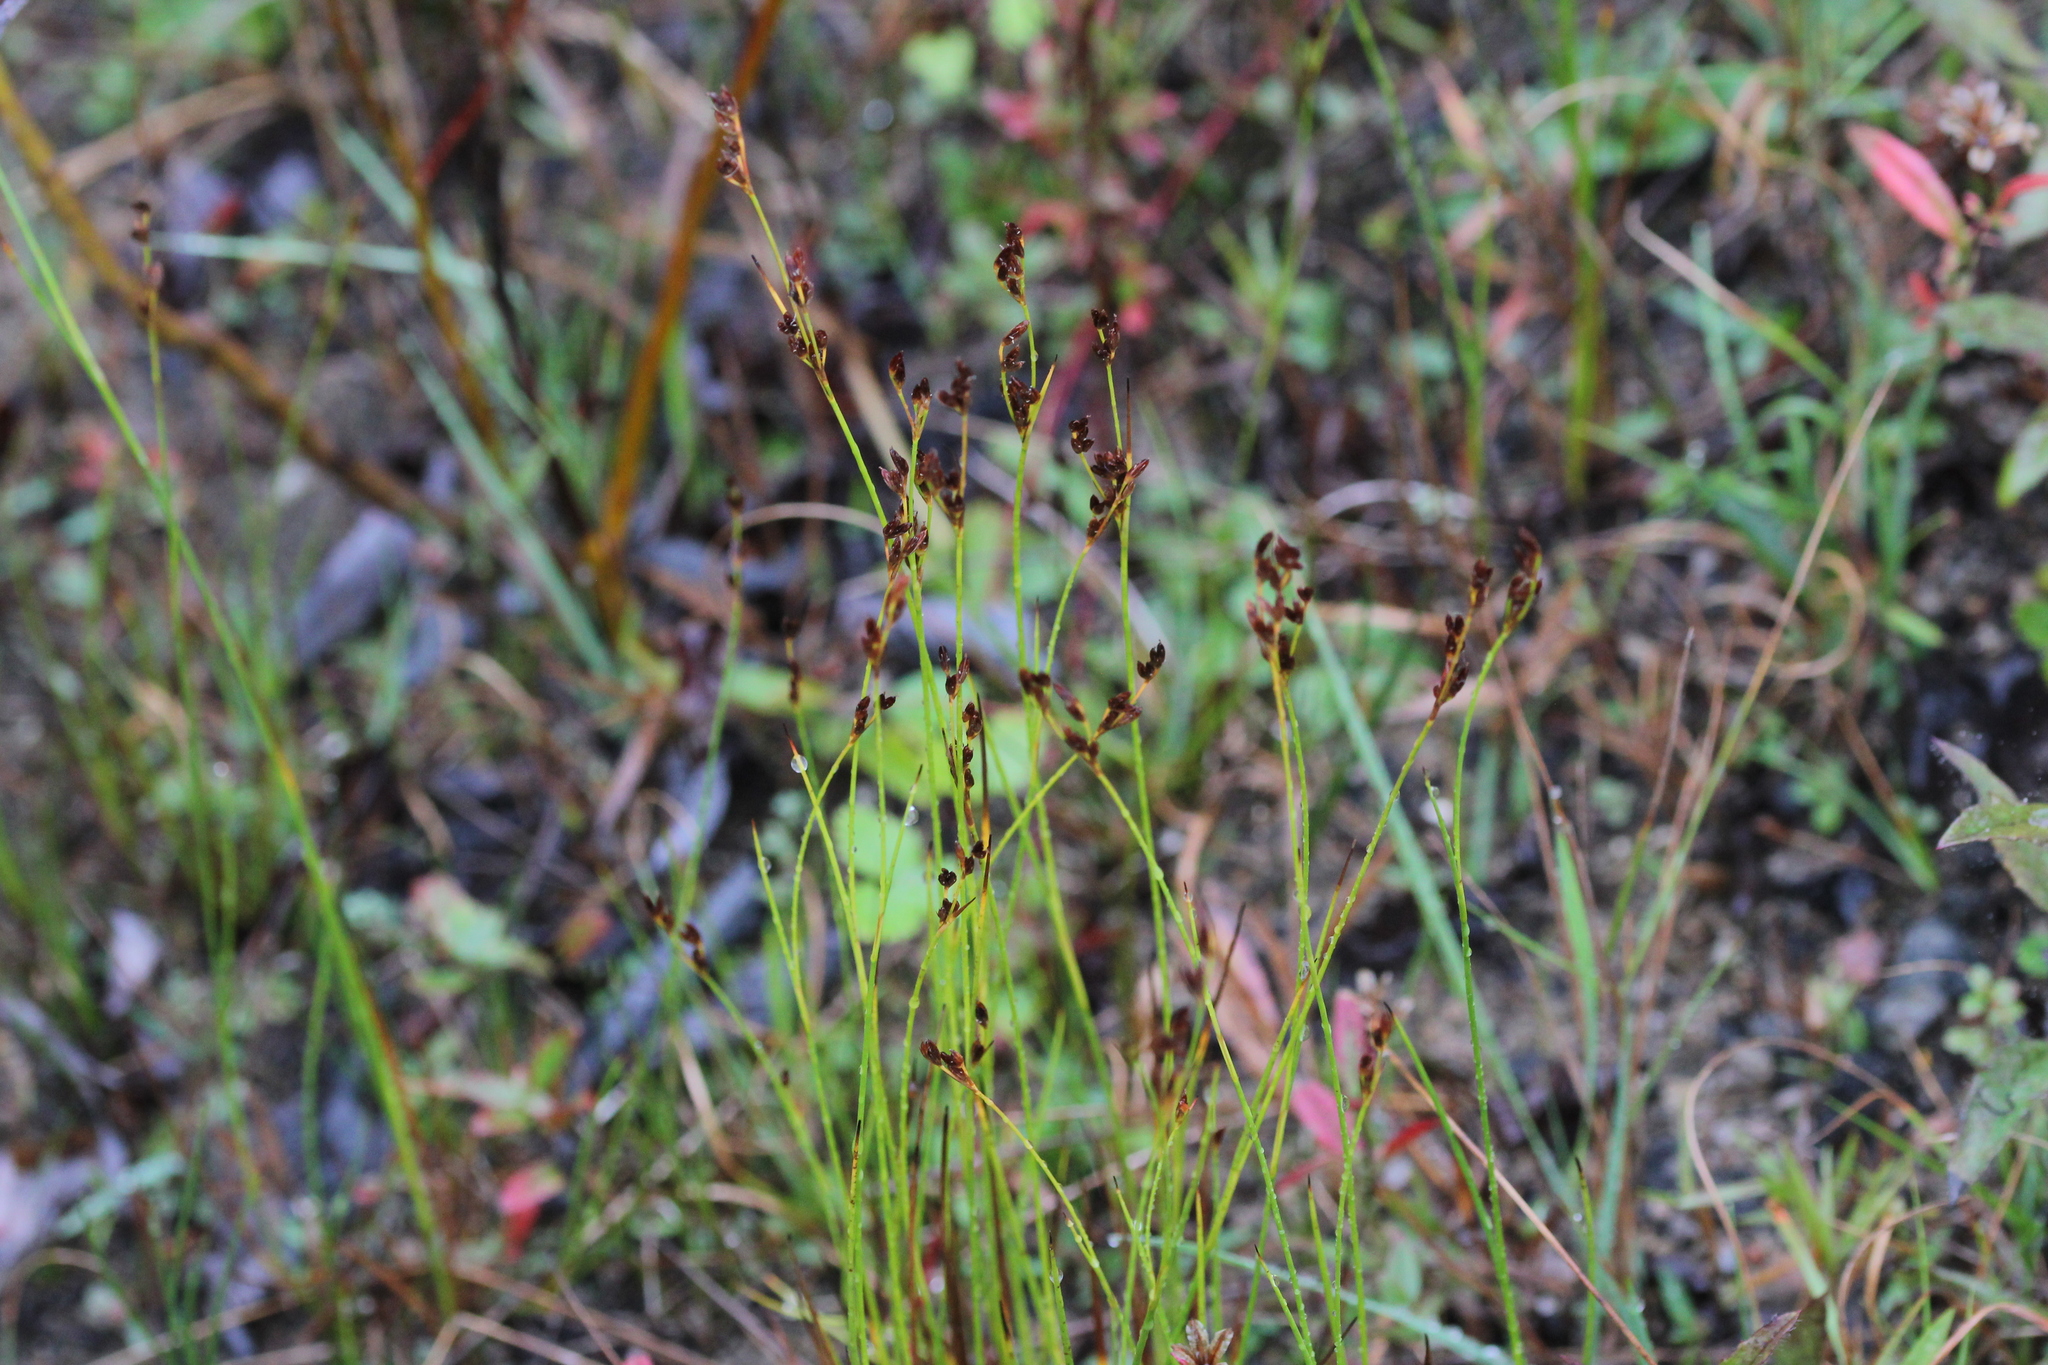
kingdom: Plantae
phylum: Tracheophyta
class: Liliopsida
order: Poales
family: Juncaceae
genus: Juncus
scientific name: Juncus tweedyi
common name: Narrow-panicled rush
